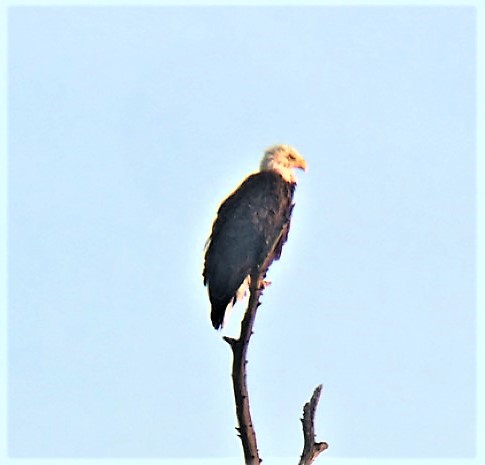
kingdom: Animalia
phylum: Chordata
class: Aves
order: Accipitriformes
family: Accipitridae
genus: Haliaeetus
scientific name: Haliaeetus leucocephalus
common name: Bald eagle
